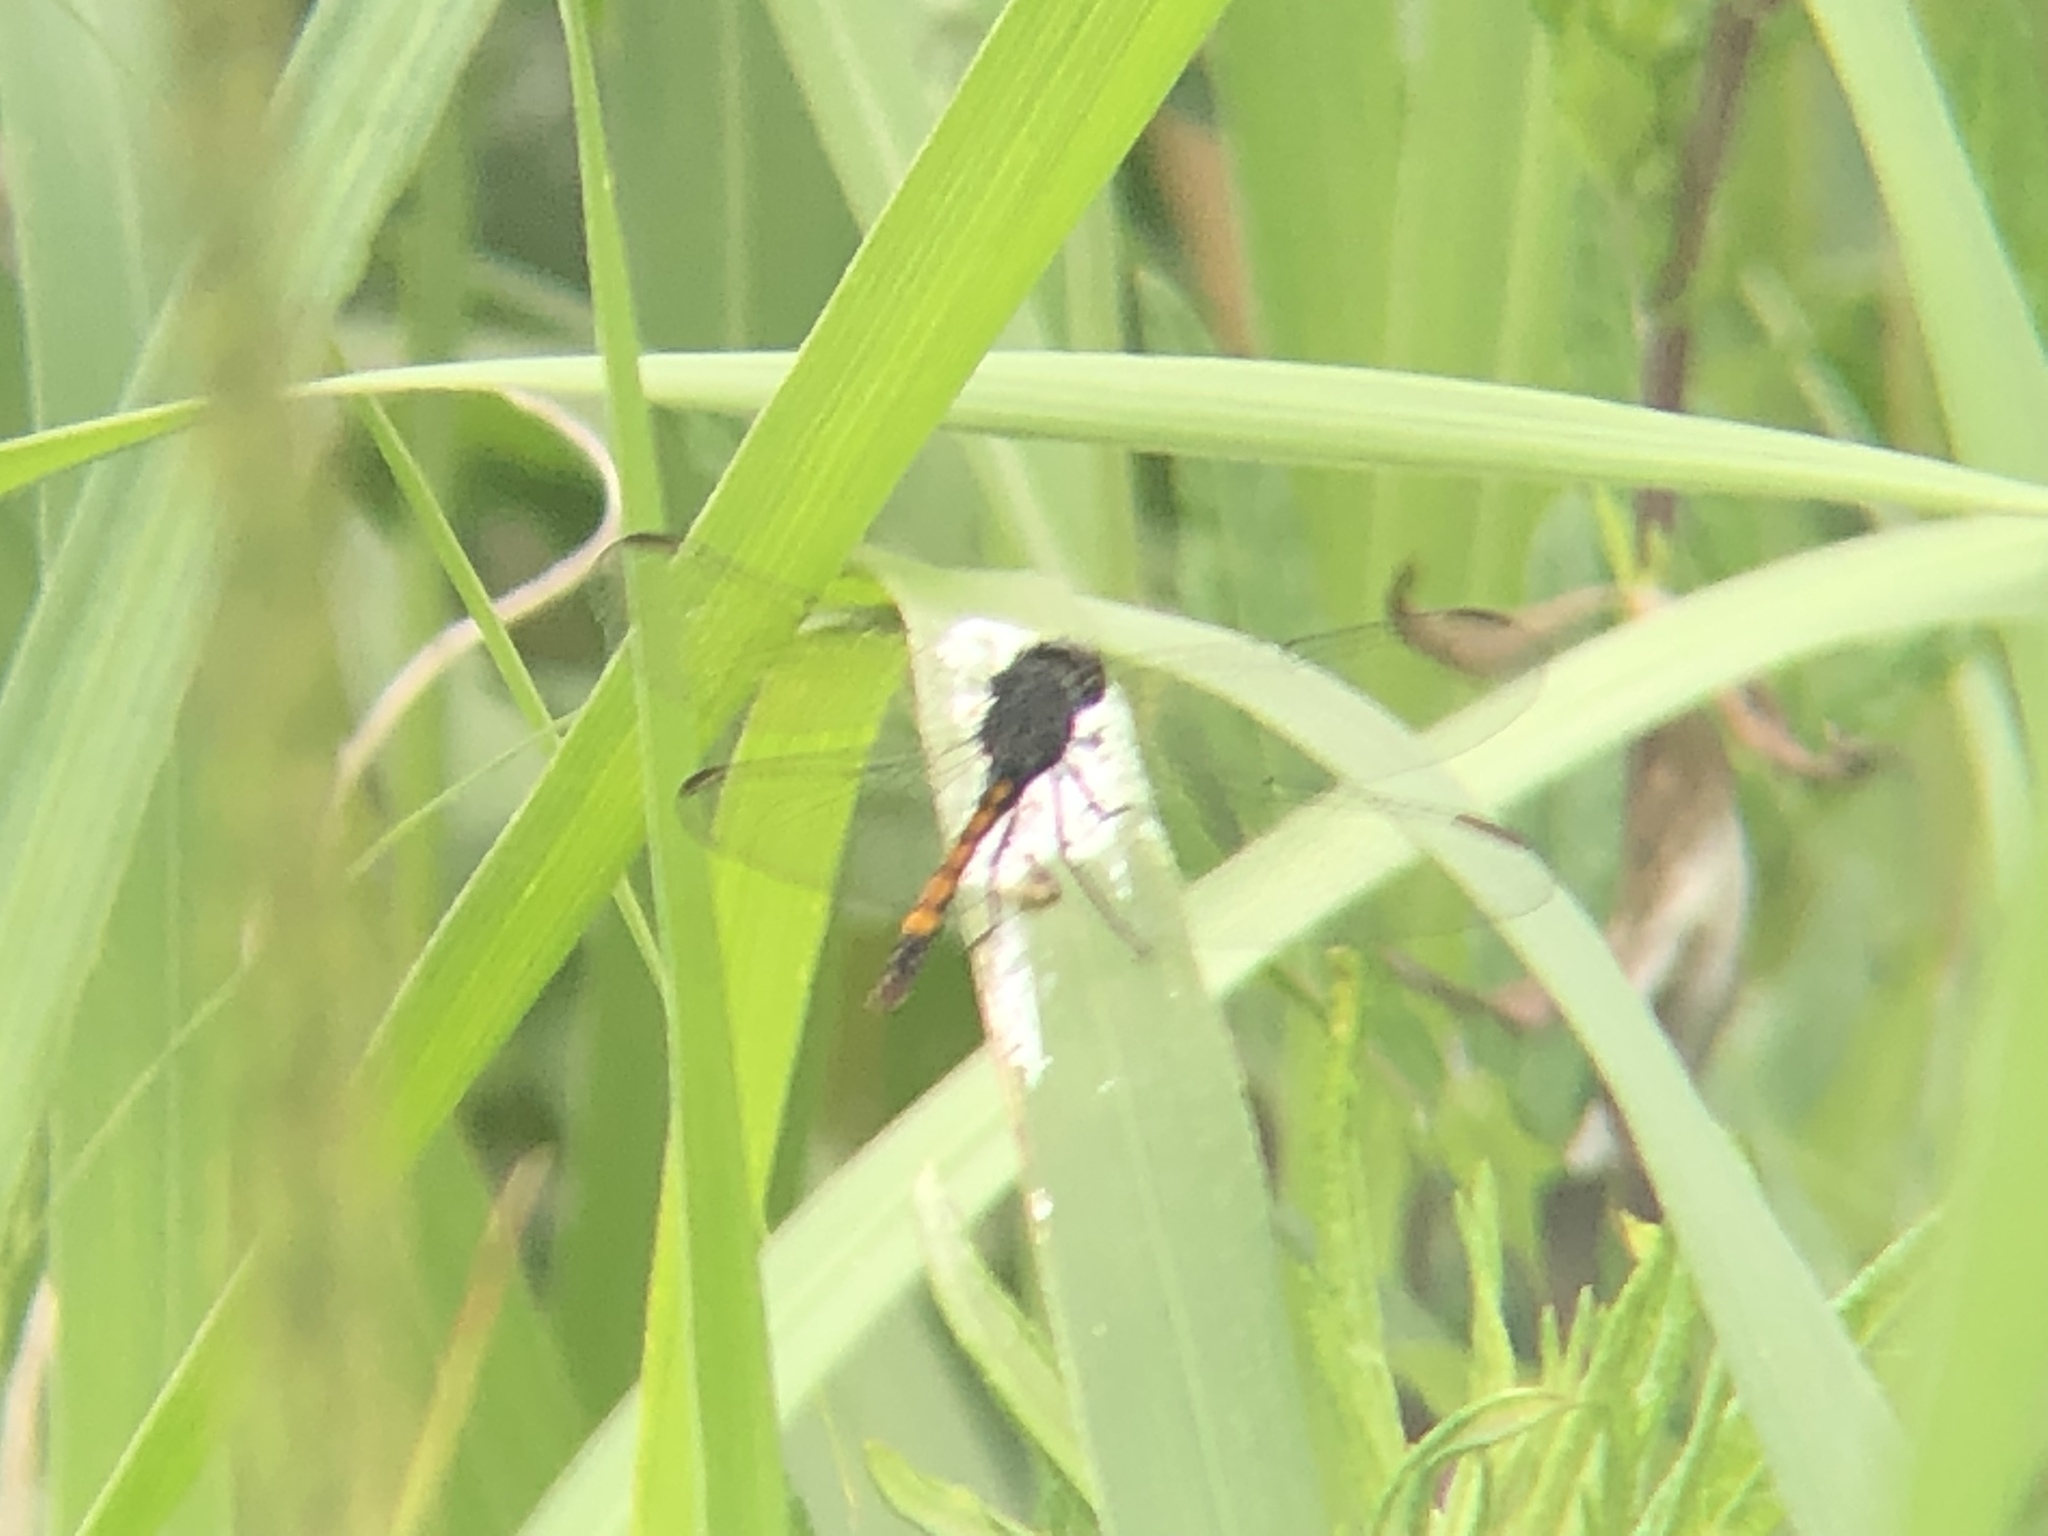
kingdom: Animalia
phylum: Arthropoda
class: Insecta
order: Odonata
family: Libellulidae
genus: Erythrodiplax
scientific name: Erythrodiplax berenice
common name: Seaside dragonlet
